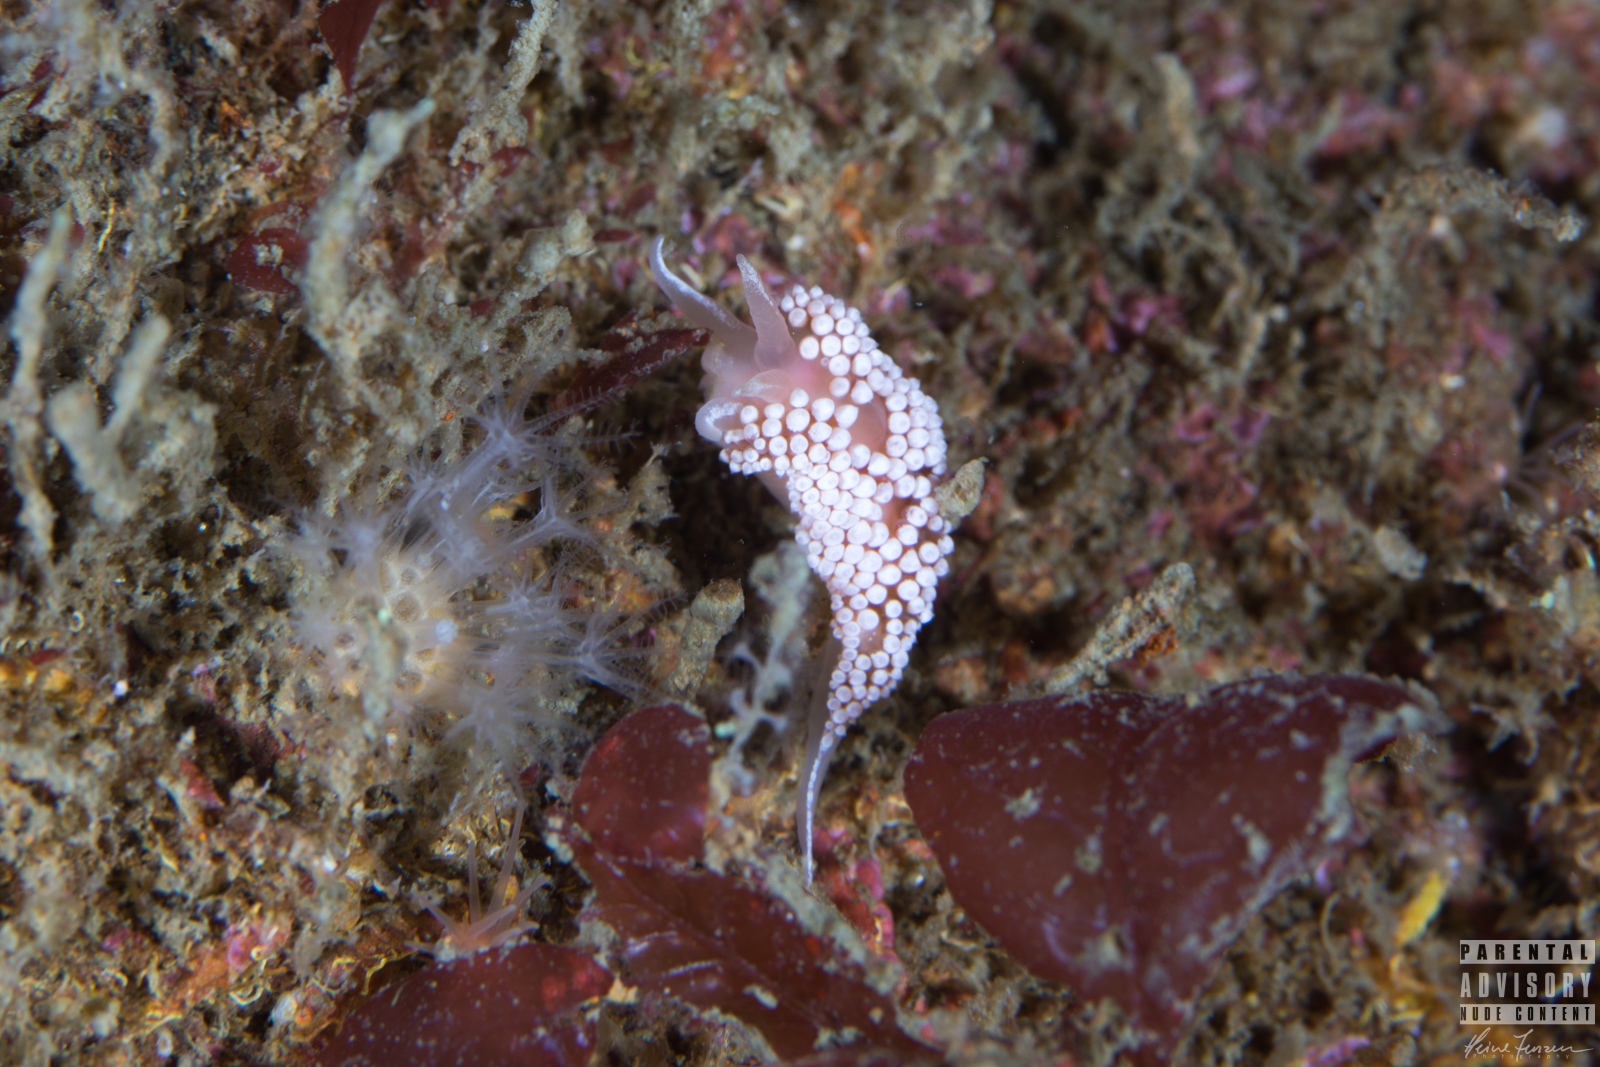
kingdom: Animalia
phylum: Mollusca
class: Gastropoda
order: Nudibranchia
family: Coryphellidae
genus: Coryphella
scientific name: Coryphella verrucosa
